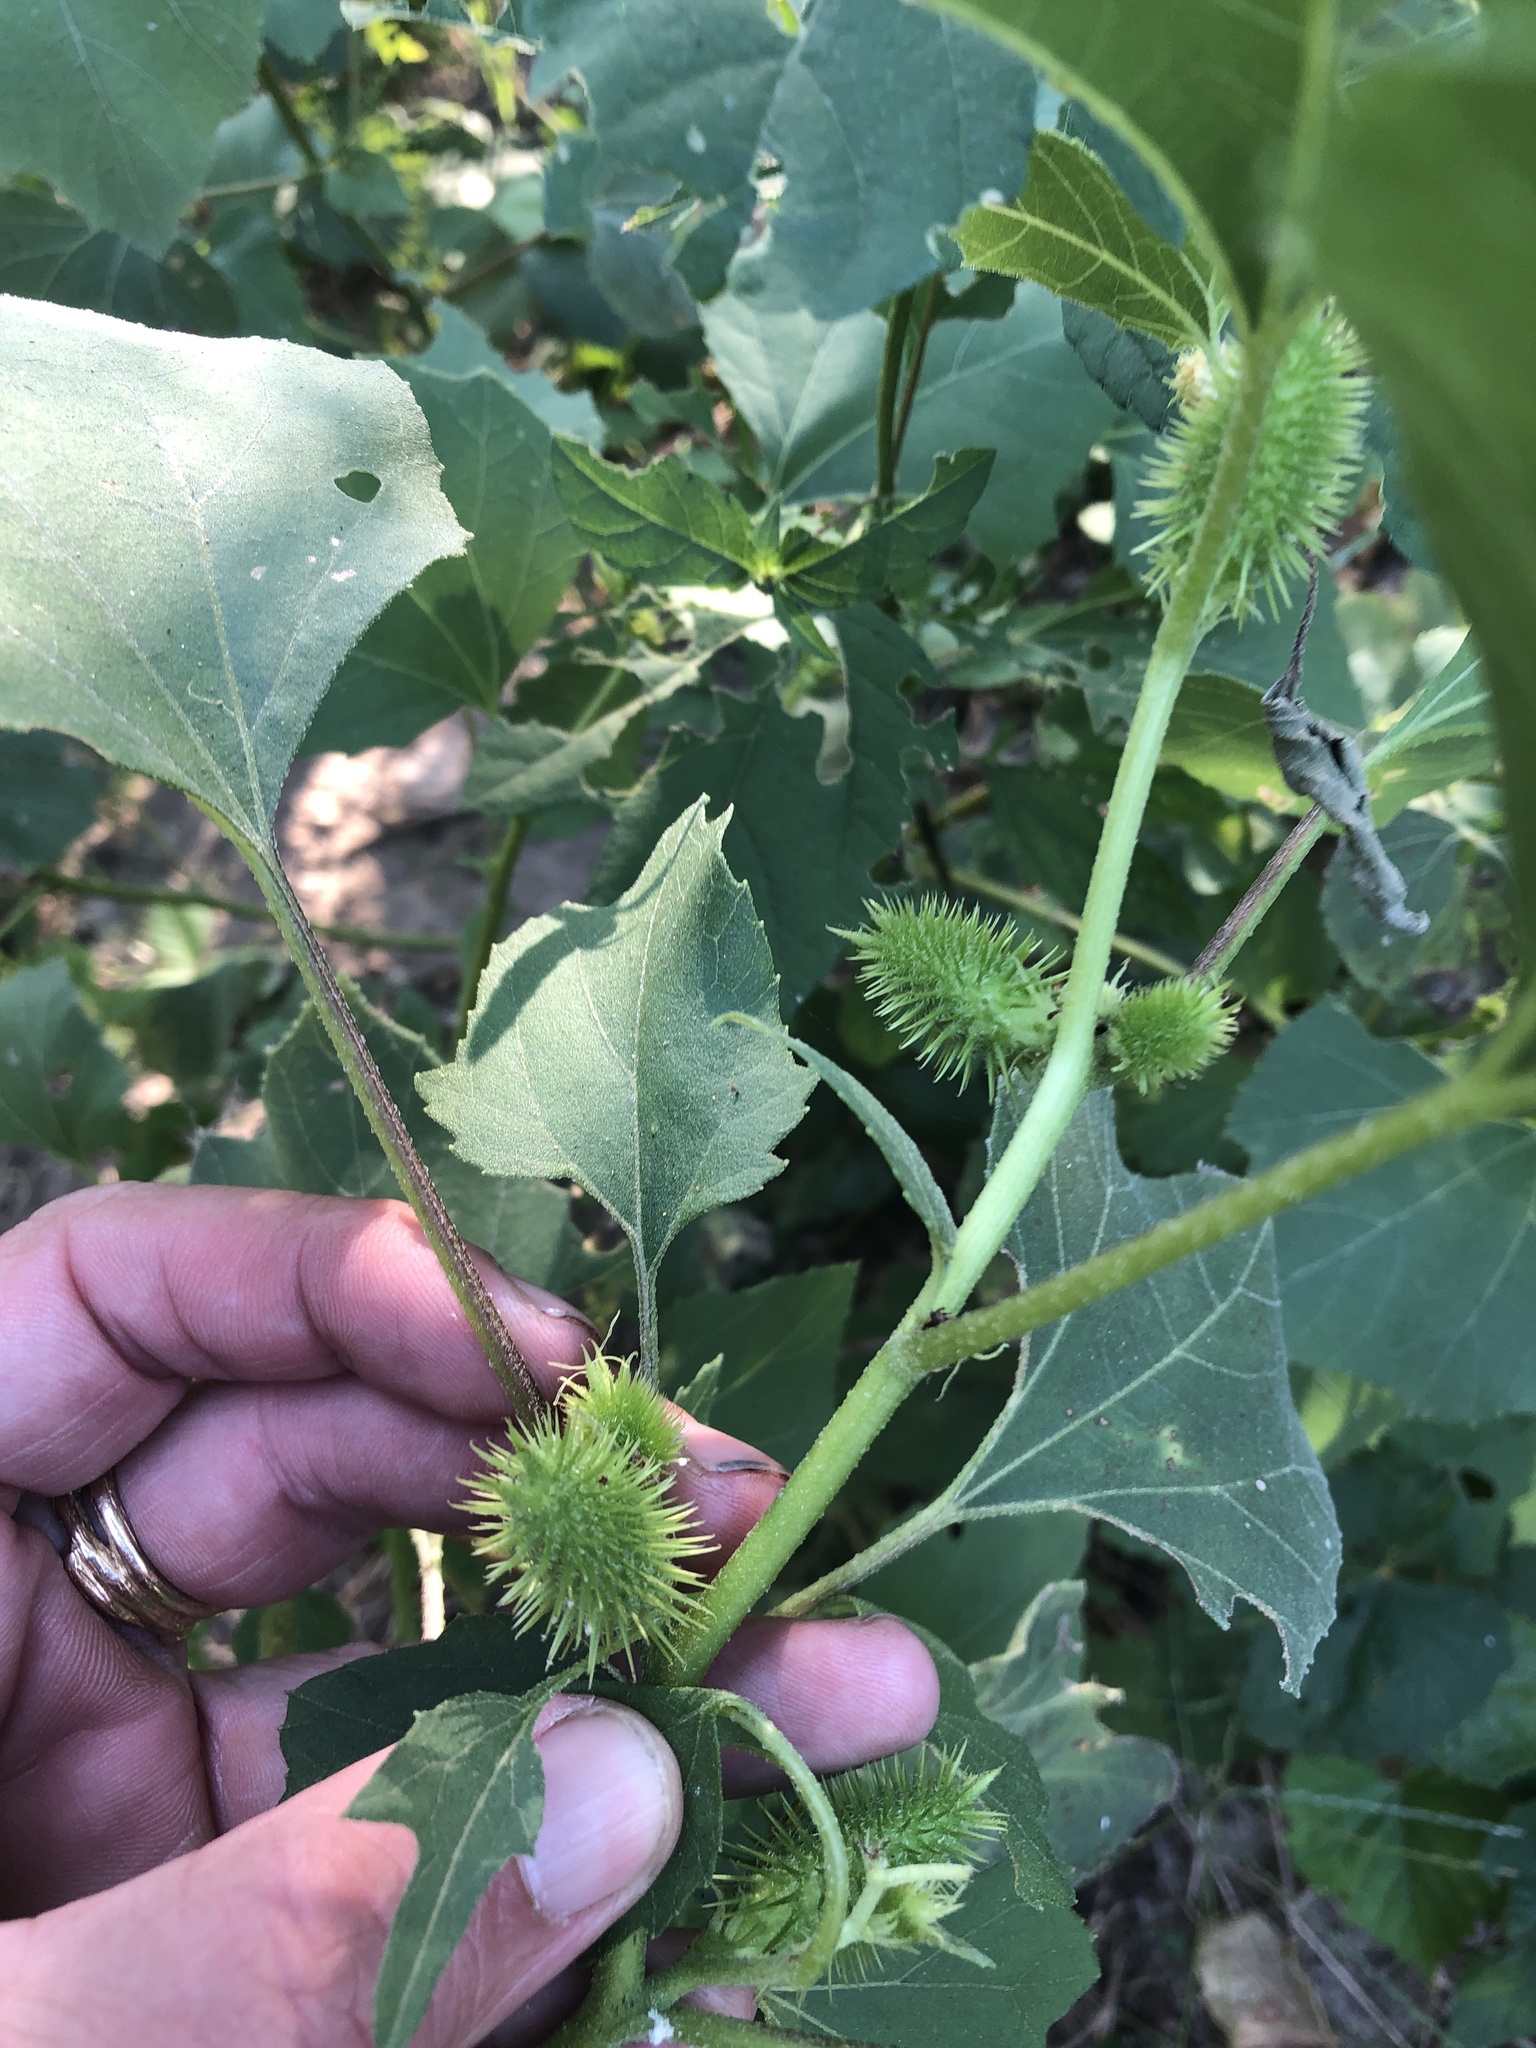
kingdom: Plantae
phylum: Tracheophyta
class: Magnoliopsida
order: Asterales
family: Asteraceae
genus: Xanthium
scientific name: Xanthium strumarium
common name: Rough cocklebur
